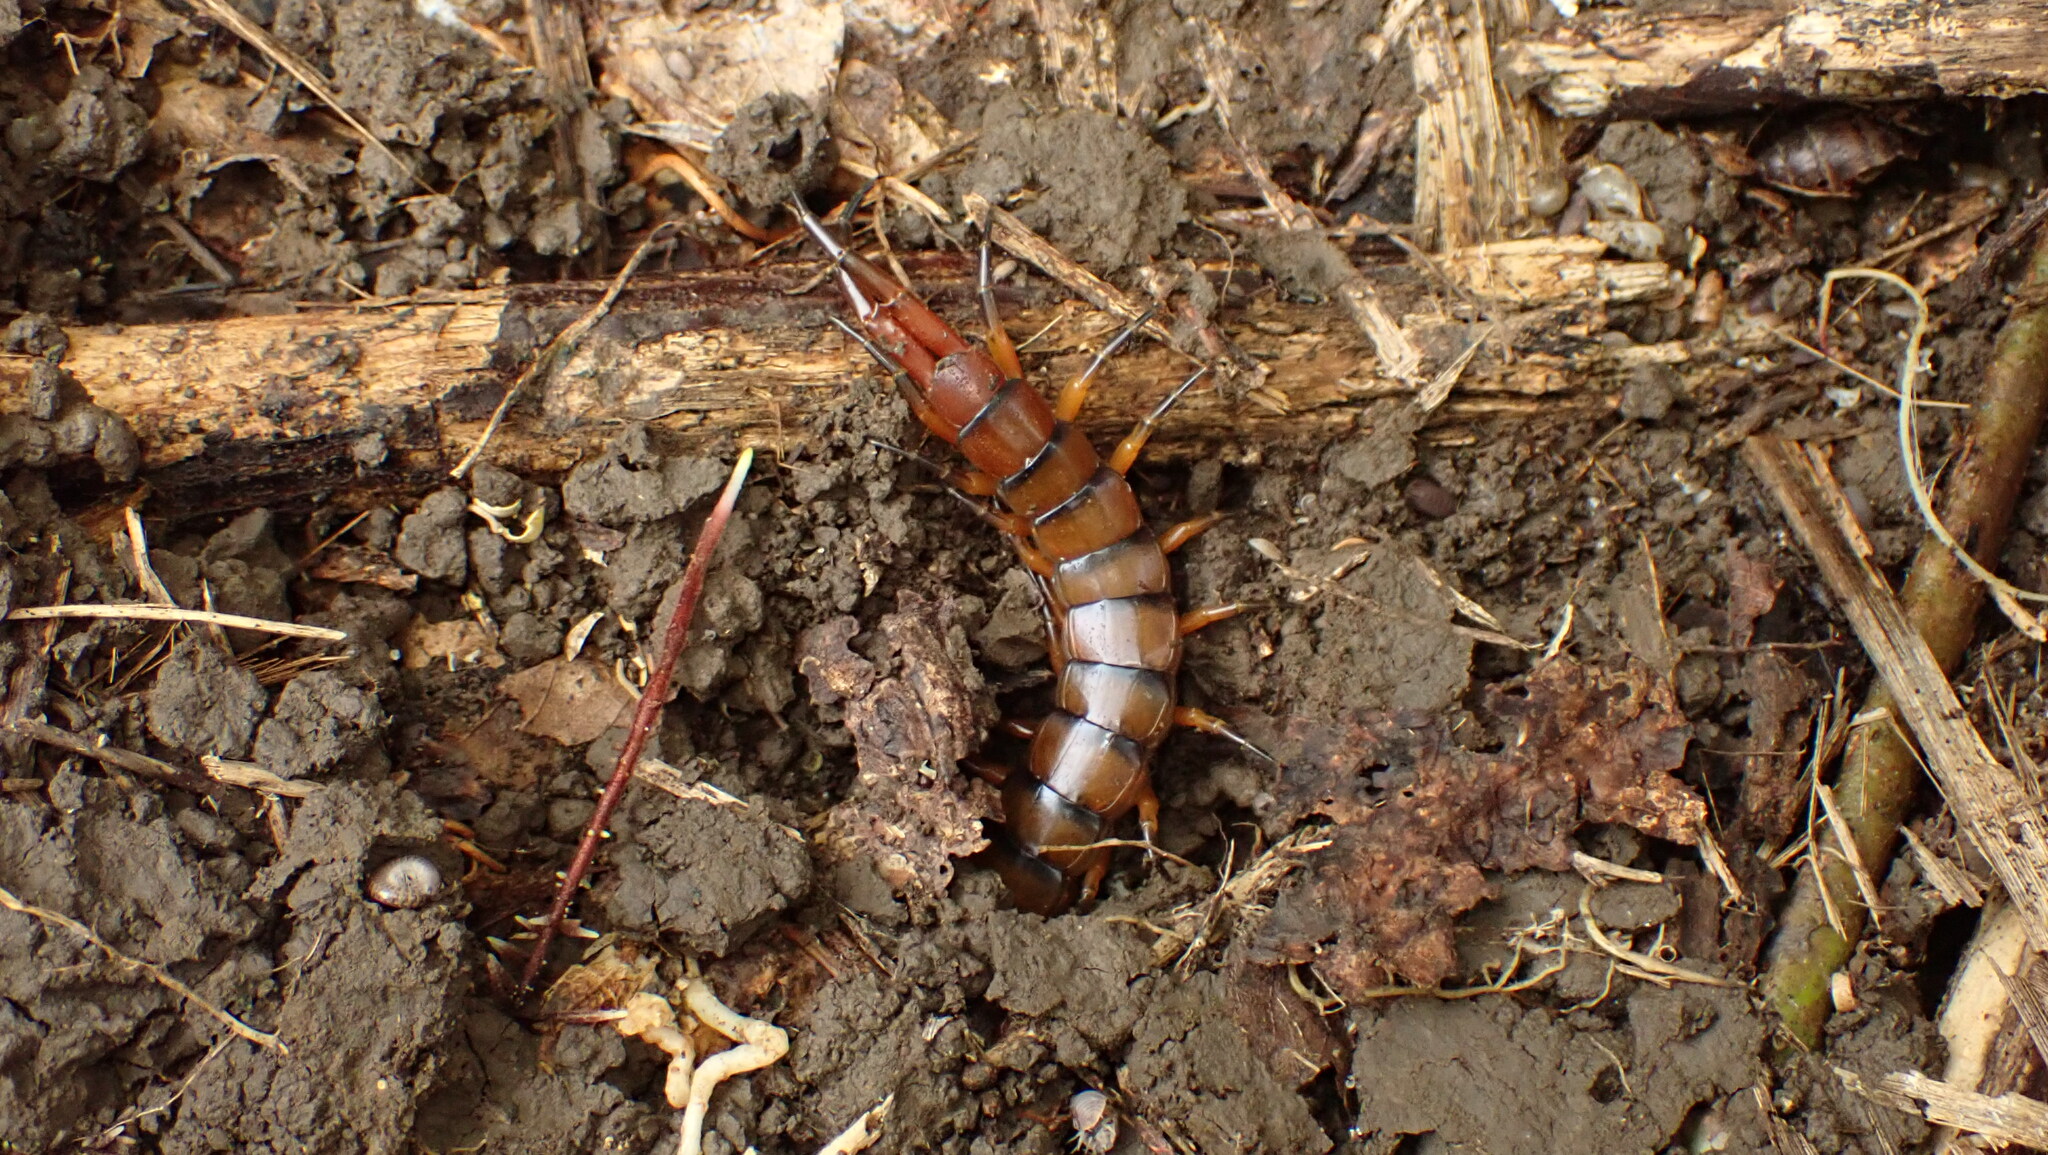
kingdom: Animalia
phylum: Arthropoda
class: Chilopoda
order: Scolopendromorpha
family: Scolopendridae
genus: Scolopendra
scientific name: Scolopendra alternans
